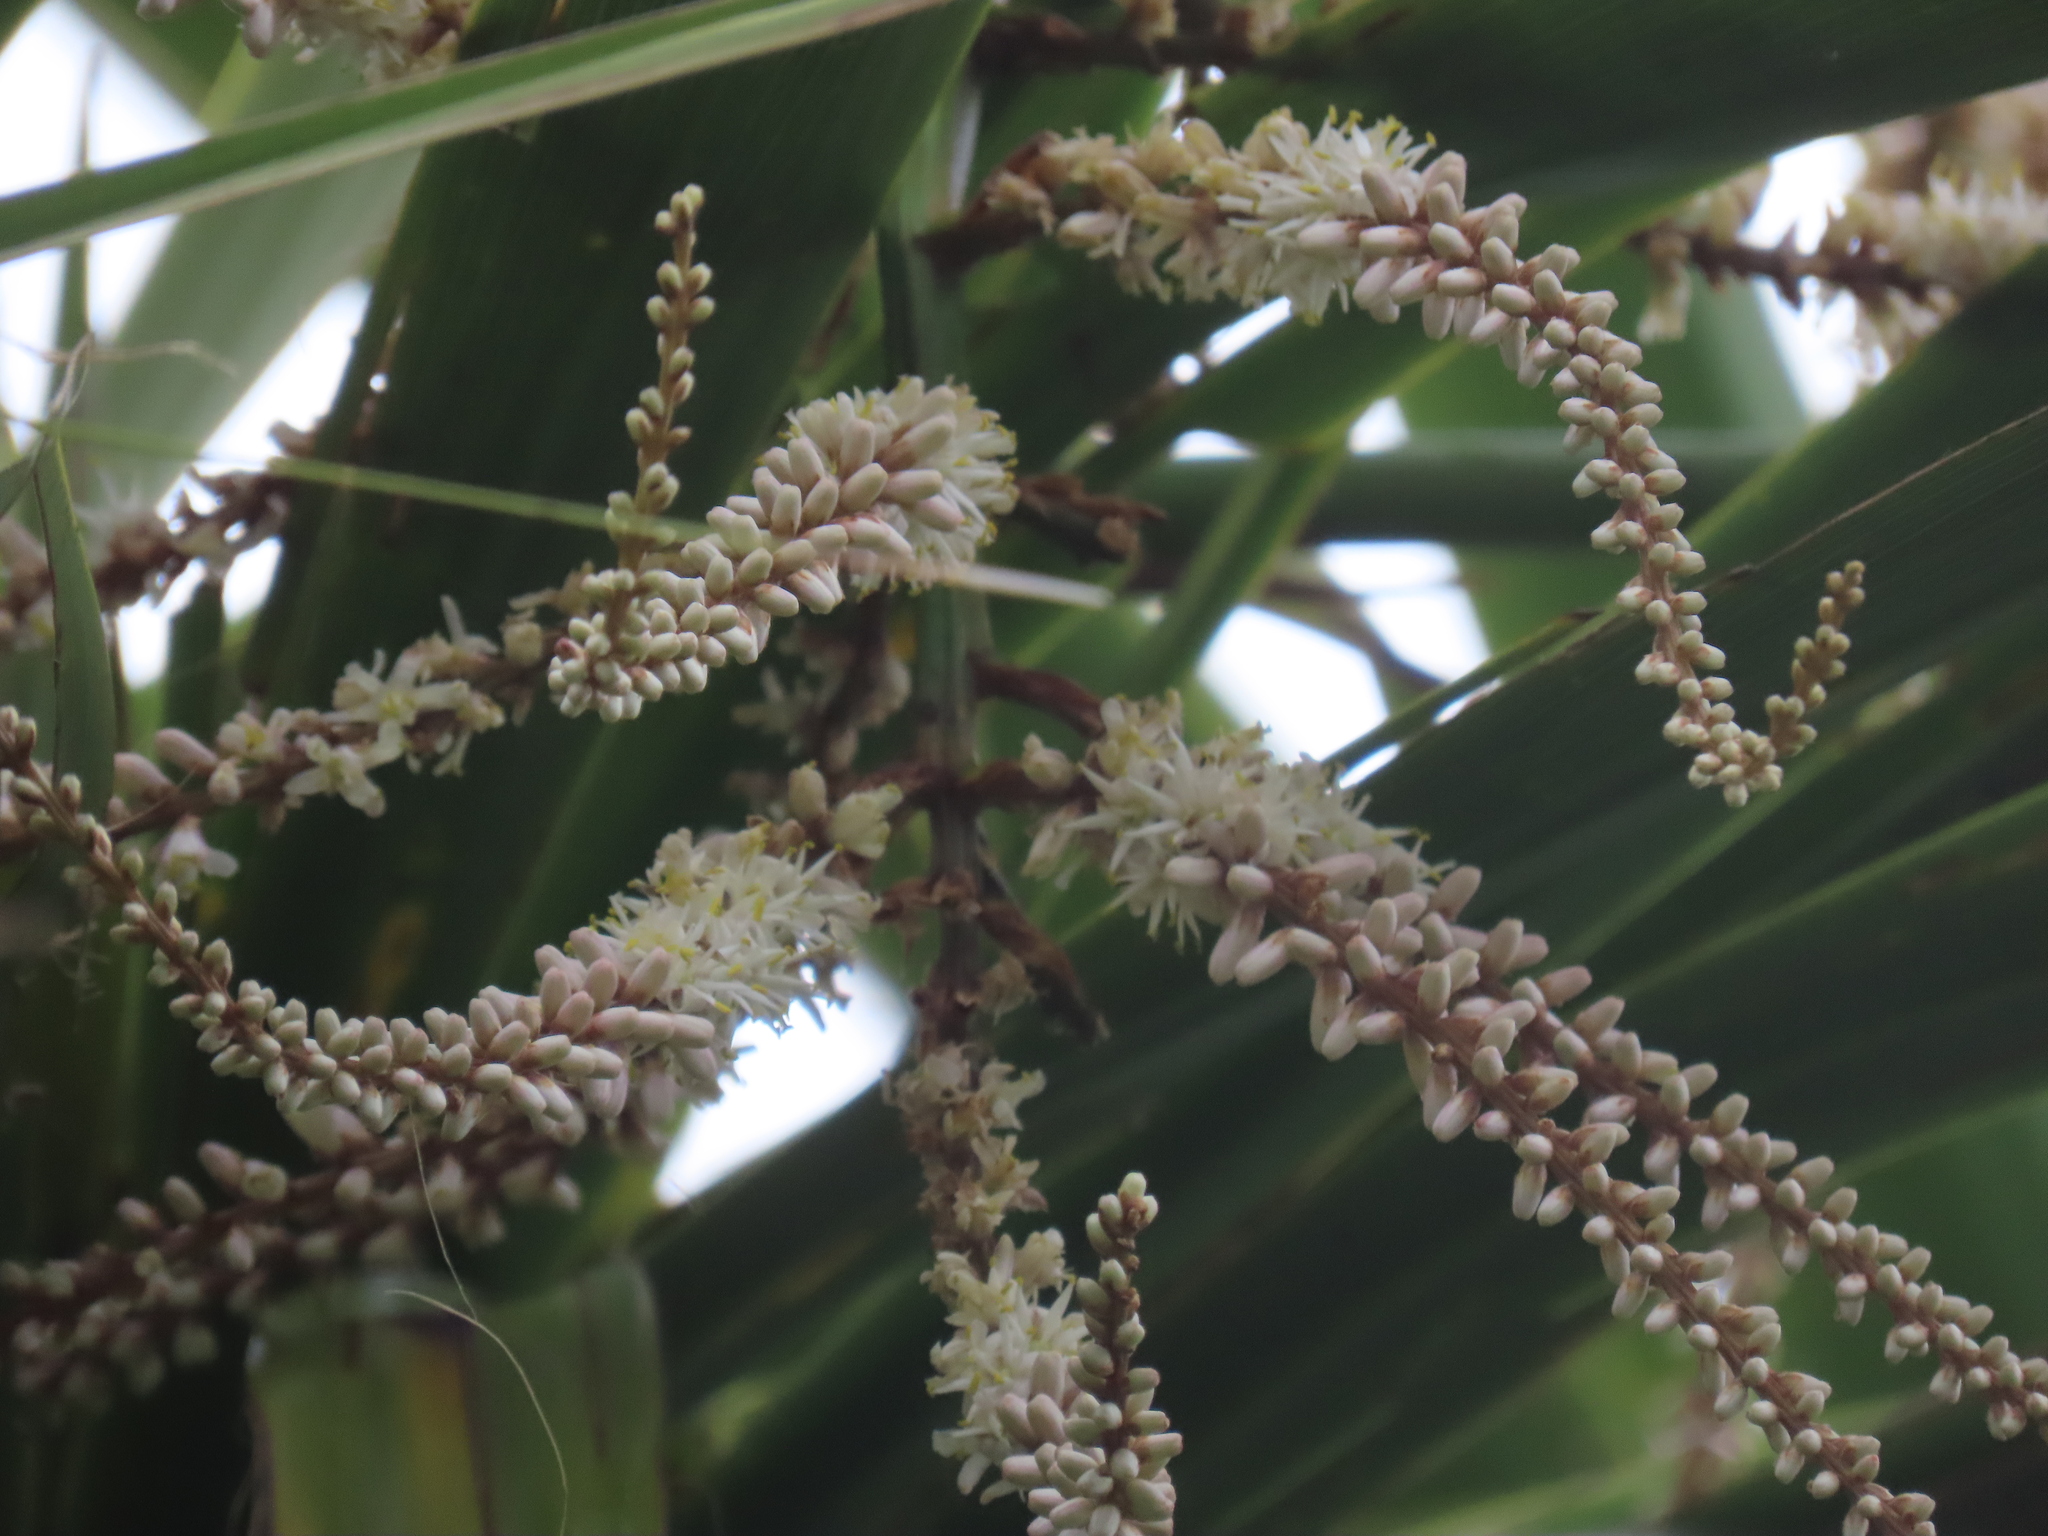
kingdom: Plantae
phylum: Tracheophyta
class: Liliopsida
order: Asparagales
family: Asparagaceae
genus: Cordyline
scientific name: Cordyline australis
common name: Cabbage-palm
